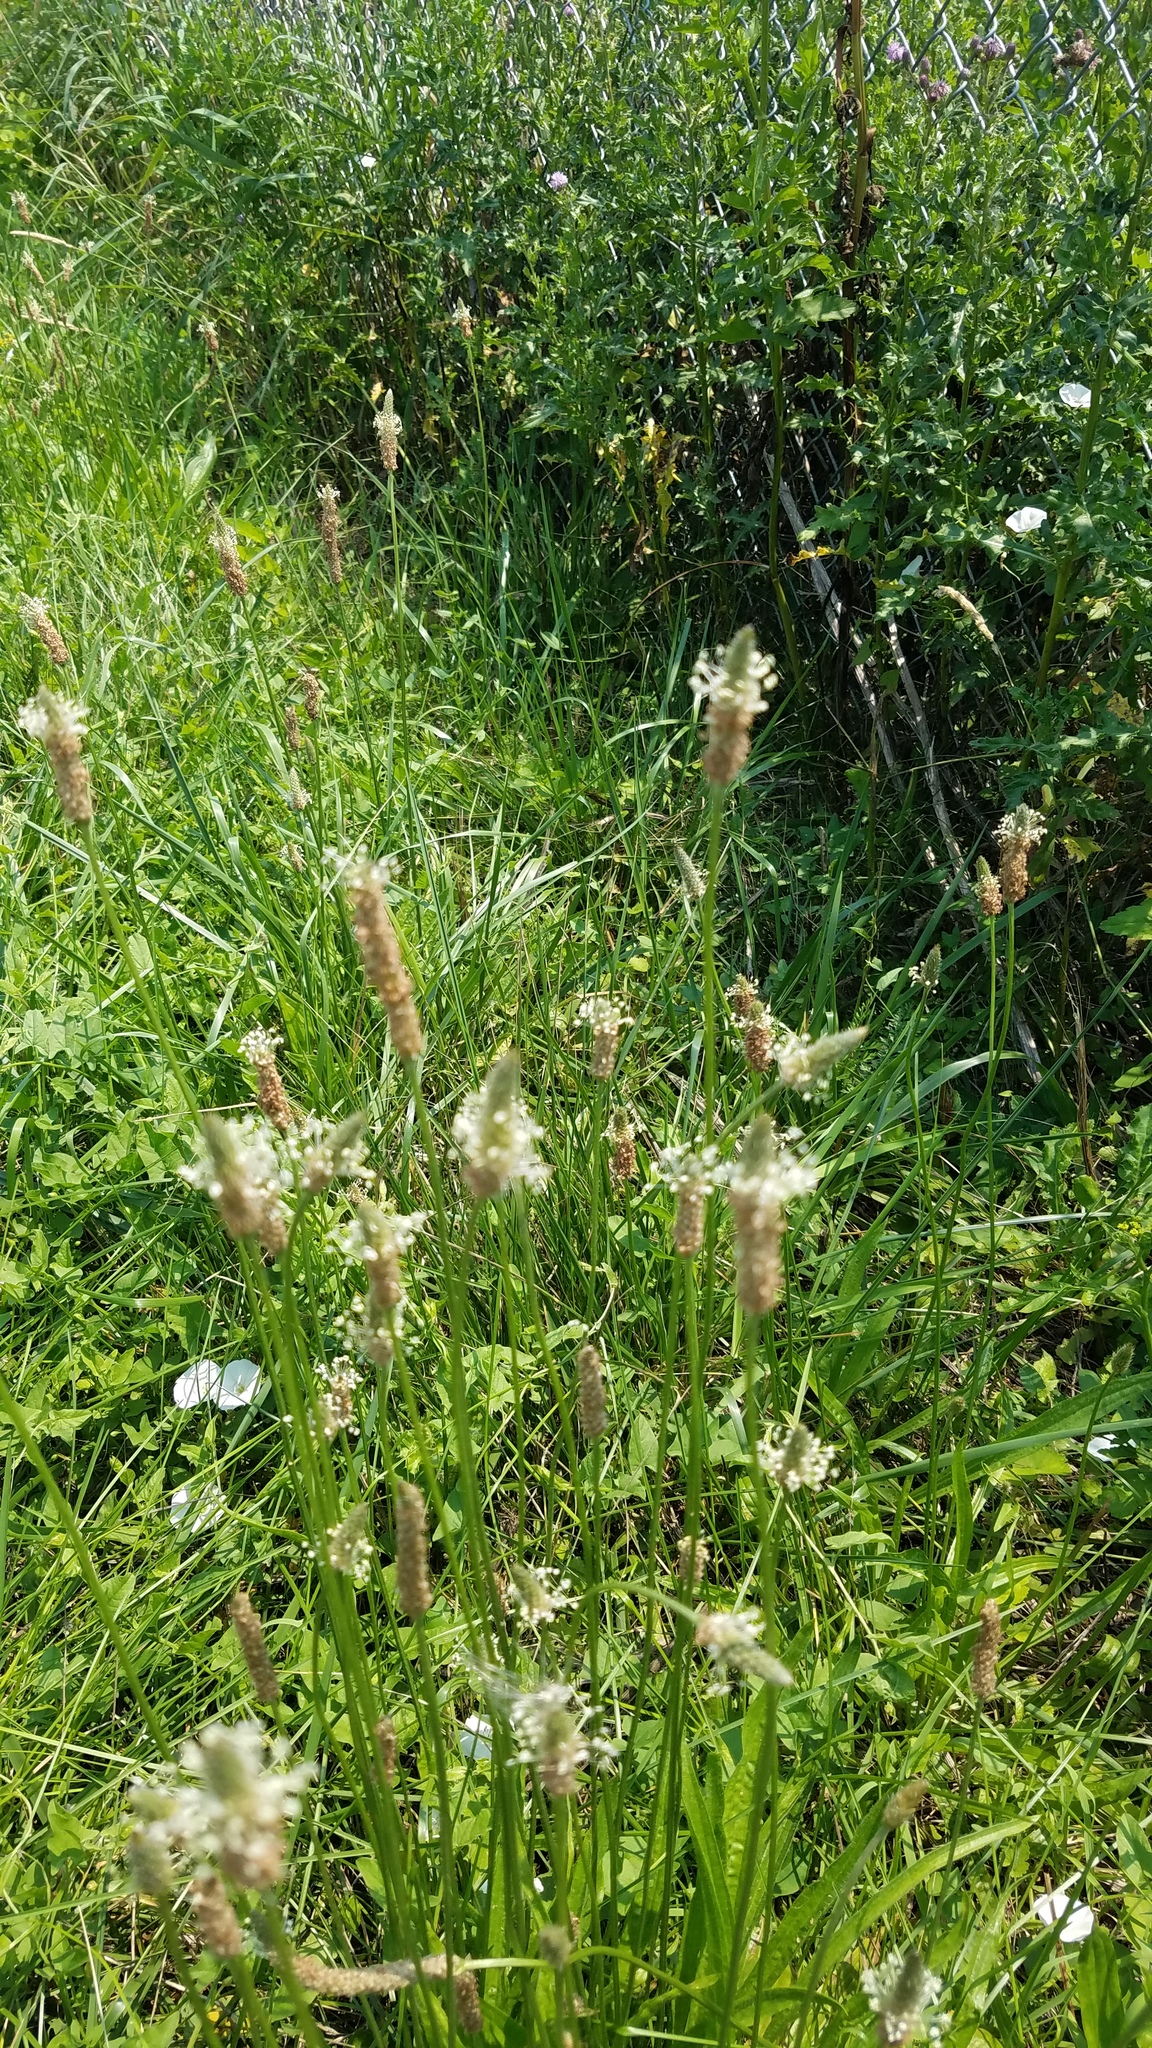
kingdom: Plantae
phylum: Tracheophyta
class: Magnoliopsida
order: Lamiales
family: Plantaginaceae
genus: Plantago
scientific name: Plantago lanceolata
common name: Ribwort plantain
